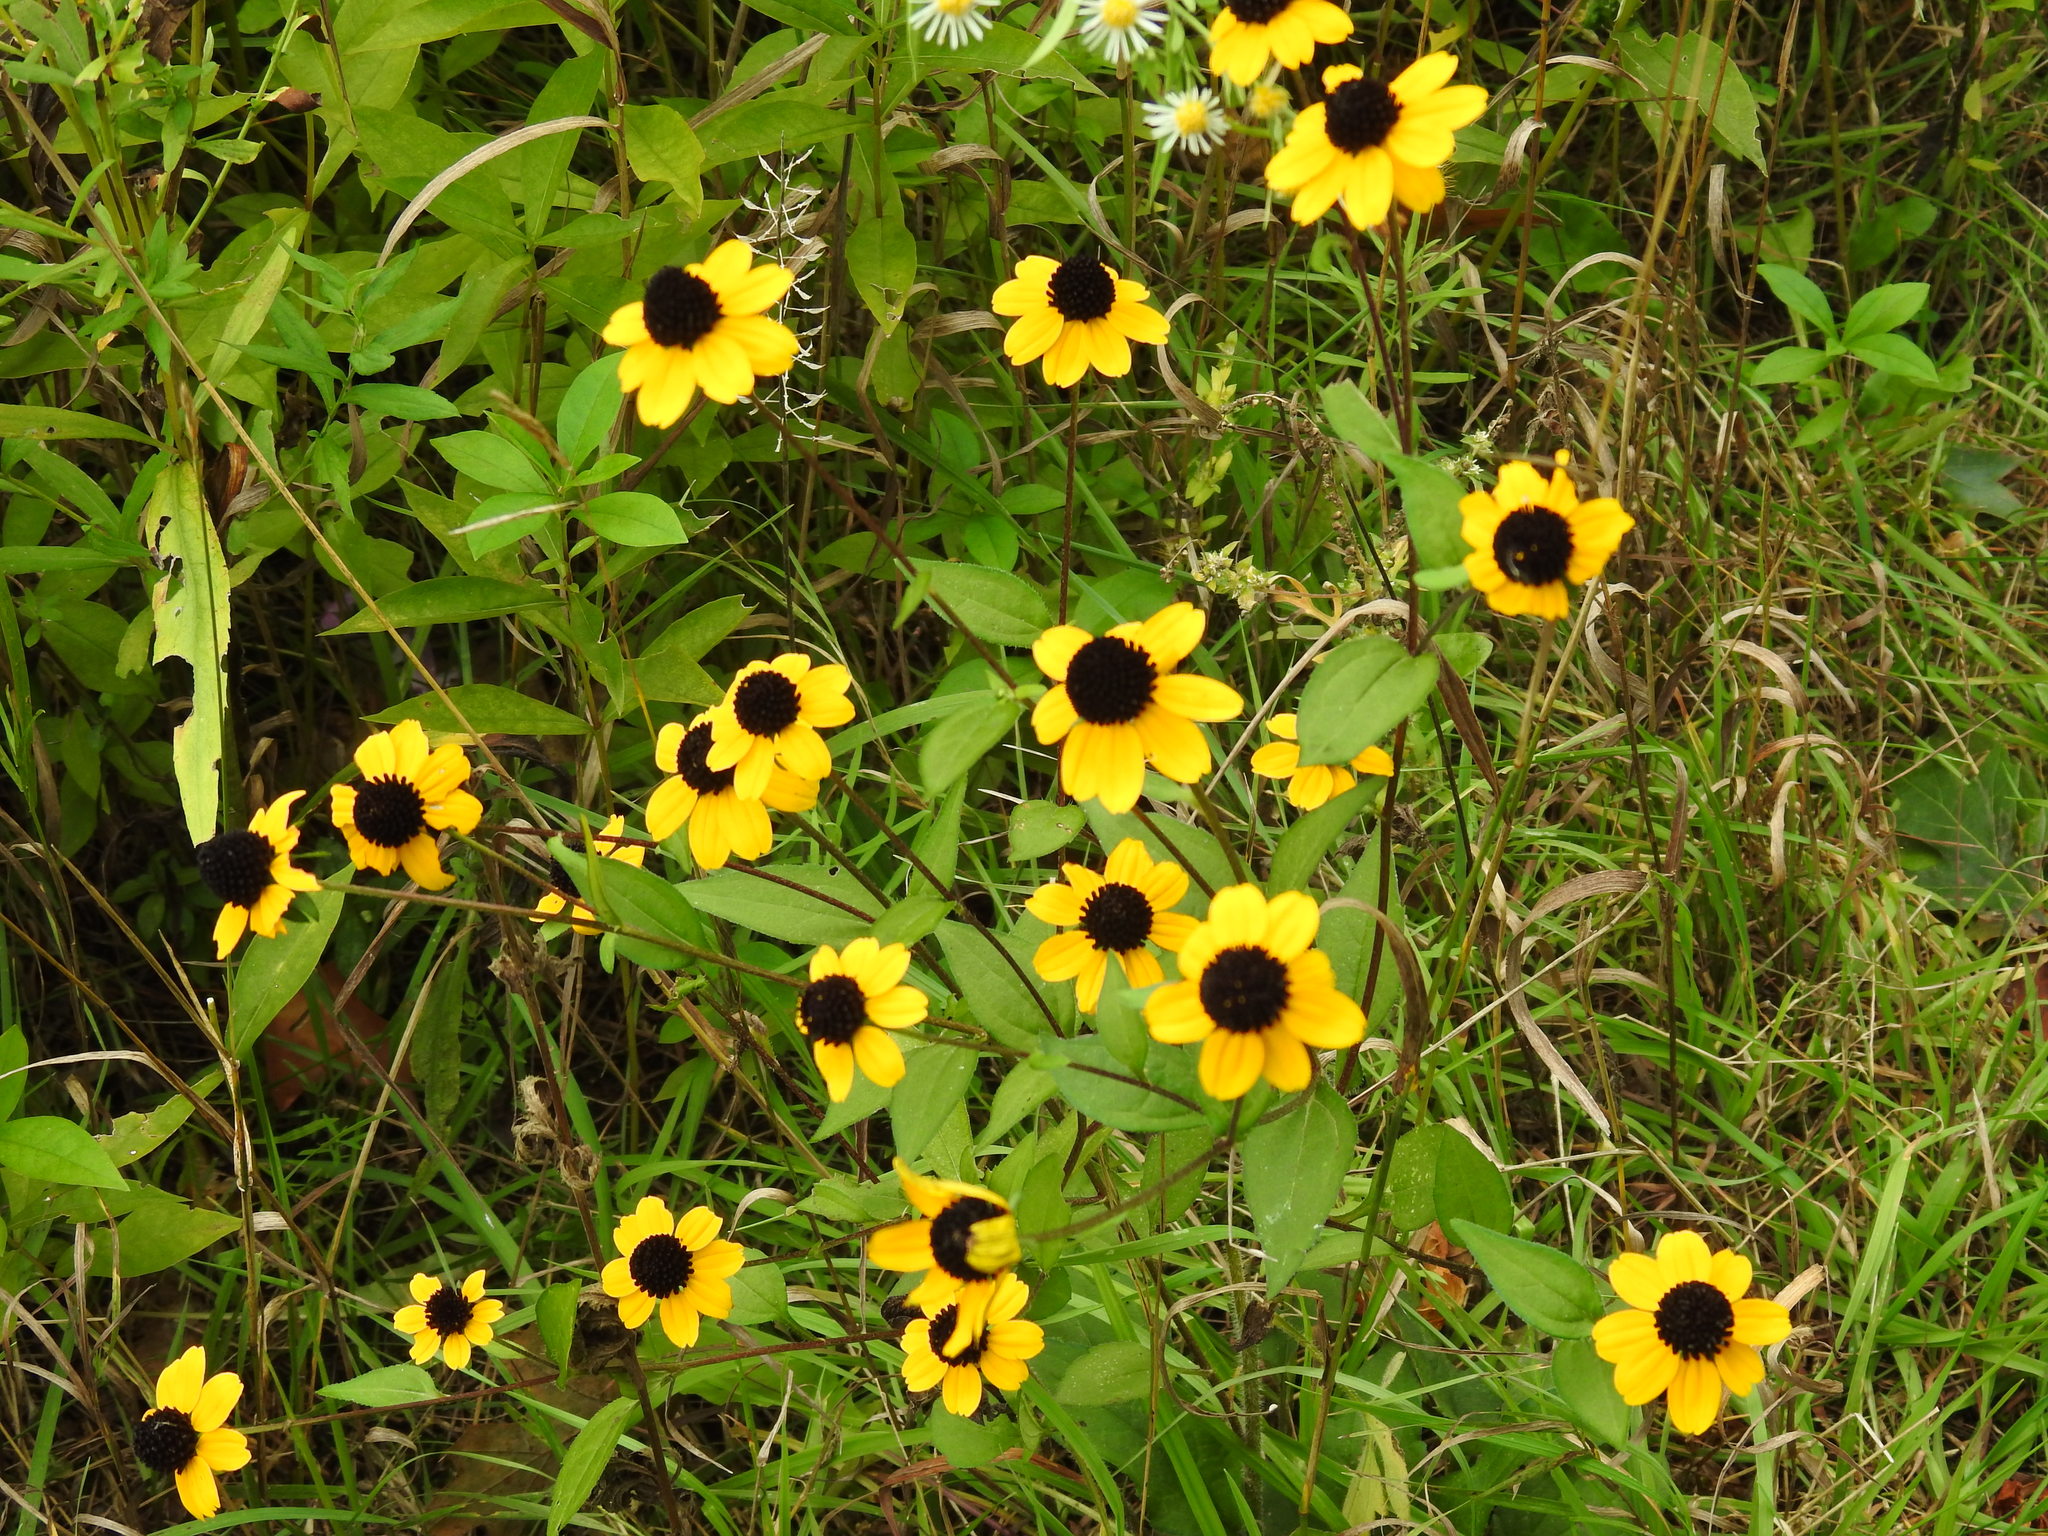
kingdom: Plantae
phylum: Tracheophyta
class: Magnoliopsida
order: Asterales
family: Asteraceae
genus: Rudbeckia
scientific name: Rudbeckia triloba
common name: Thin-leaved coneflower
